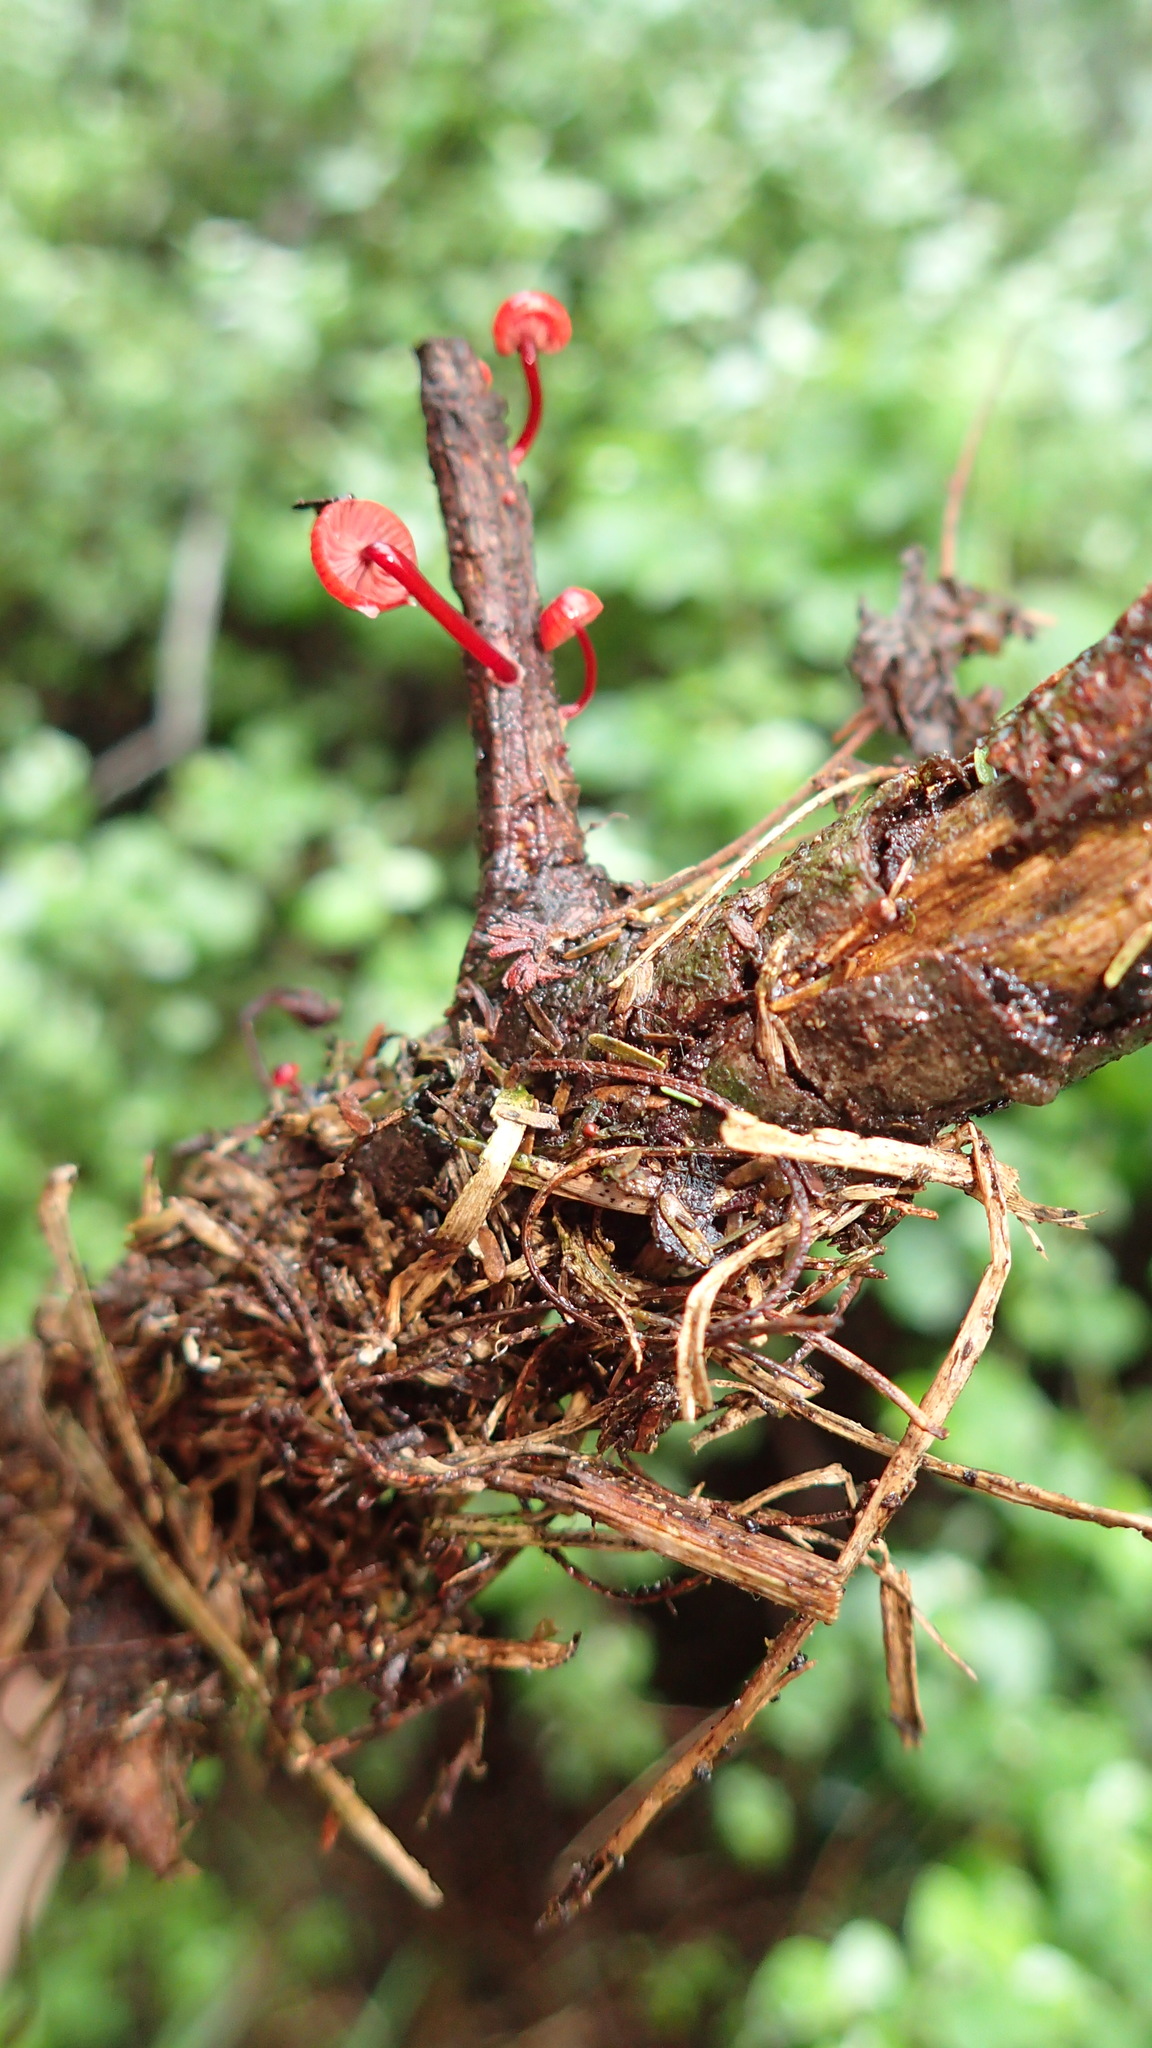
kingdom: Fungi
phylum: Basidiomycota
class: Agaricomycetes
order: Agaricales
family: Mycenaceae
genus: Cruentomycena
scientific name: Cruentomycena viscidocruenta
